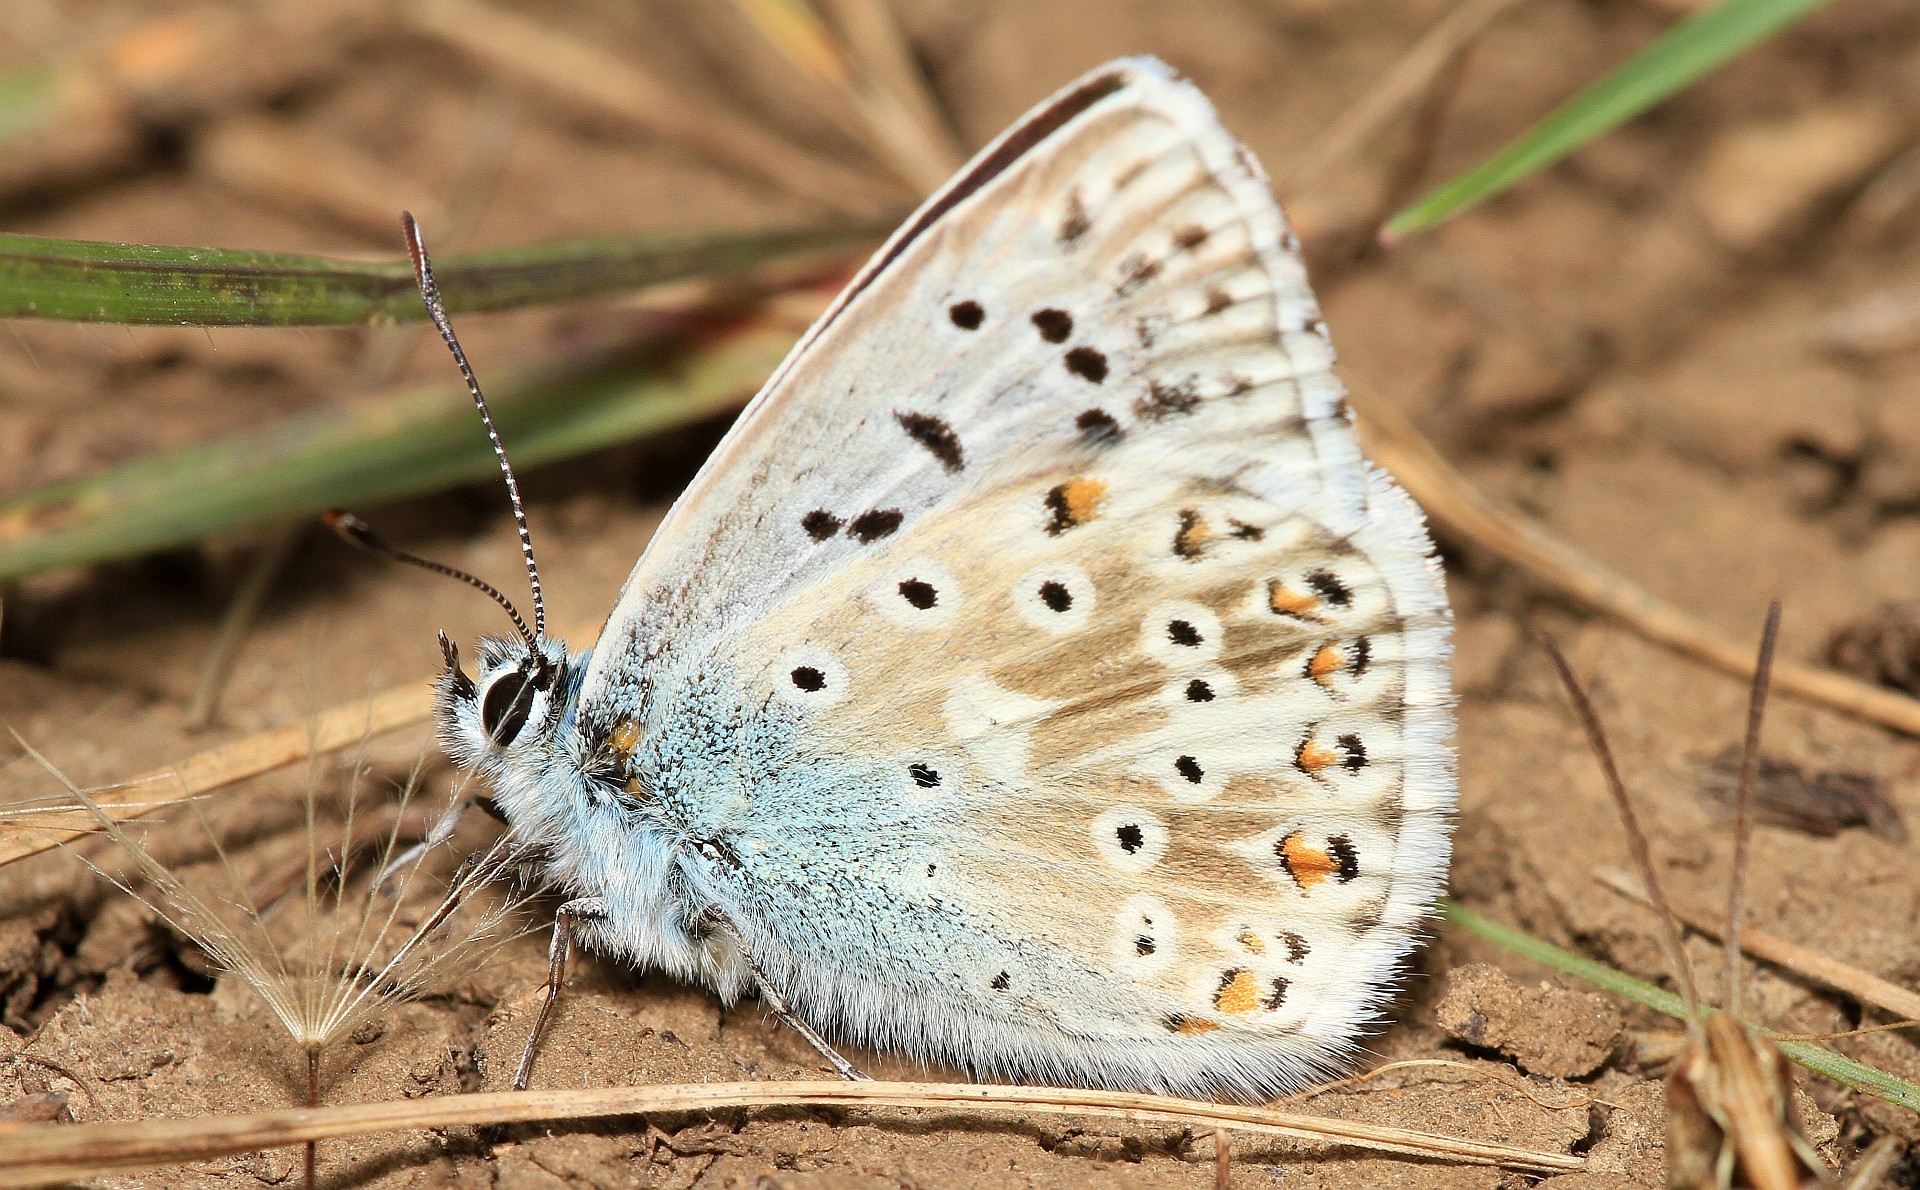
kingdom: Animalia
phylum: Arthropoda
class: Insecta
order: Lepidoptera
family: Lycaenidae
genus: Lysandra
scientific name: Lysandra coridon
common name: Chalkhill blue
